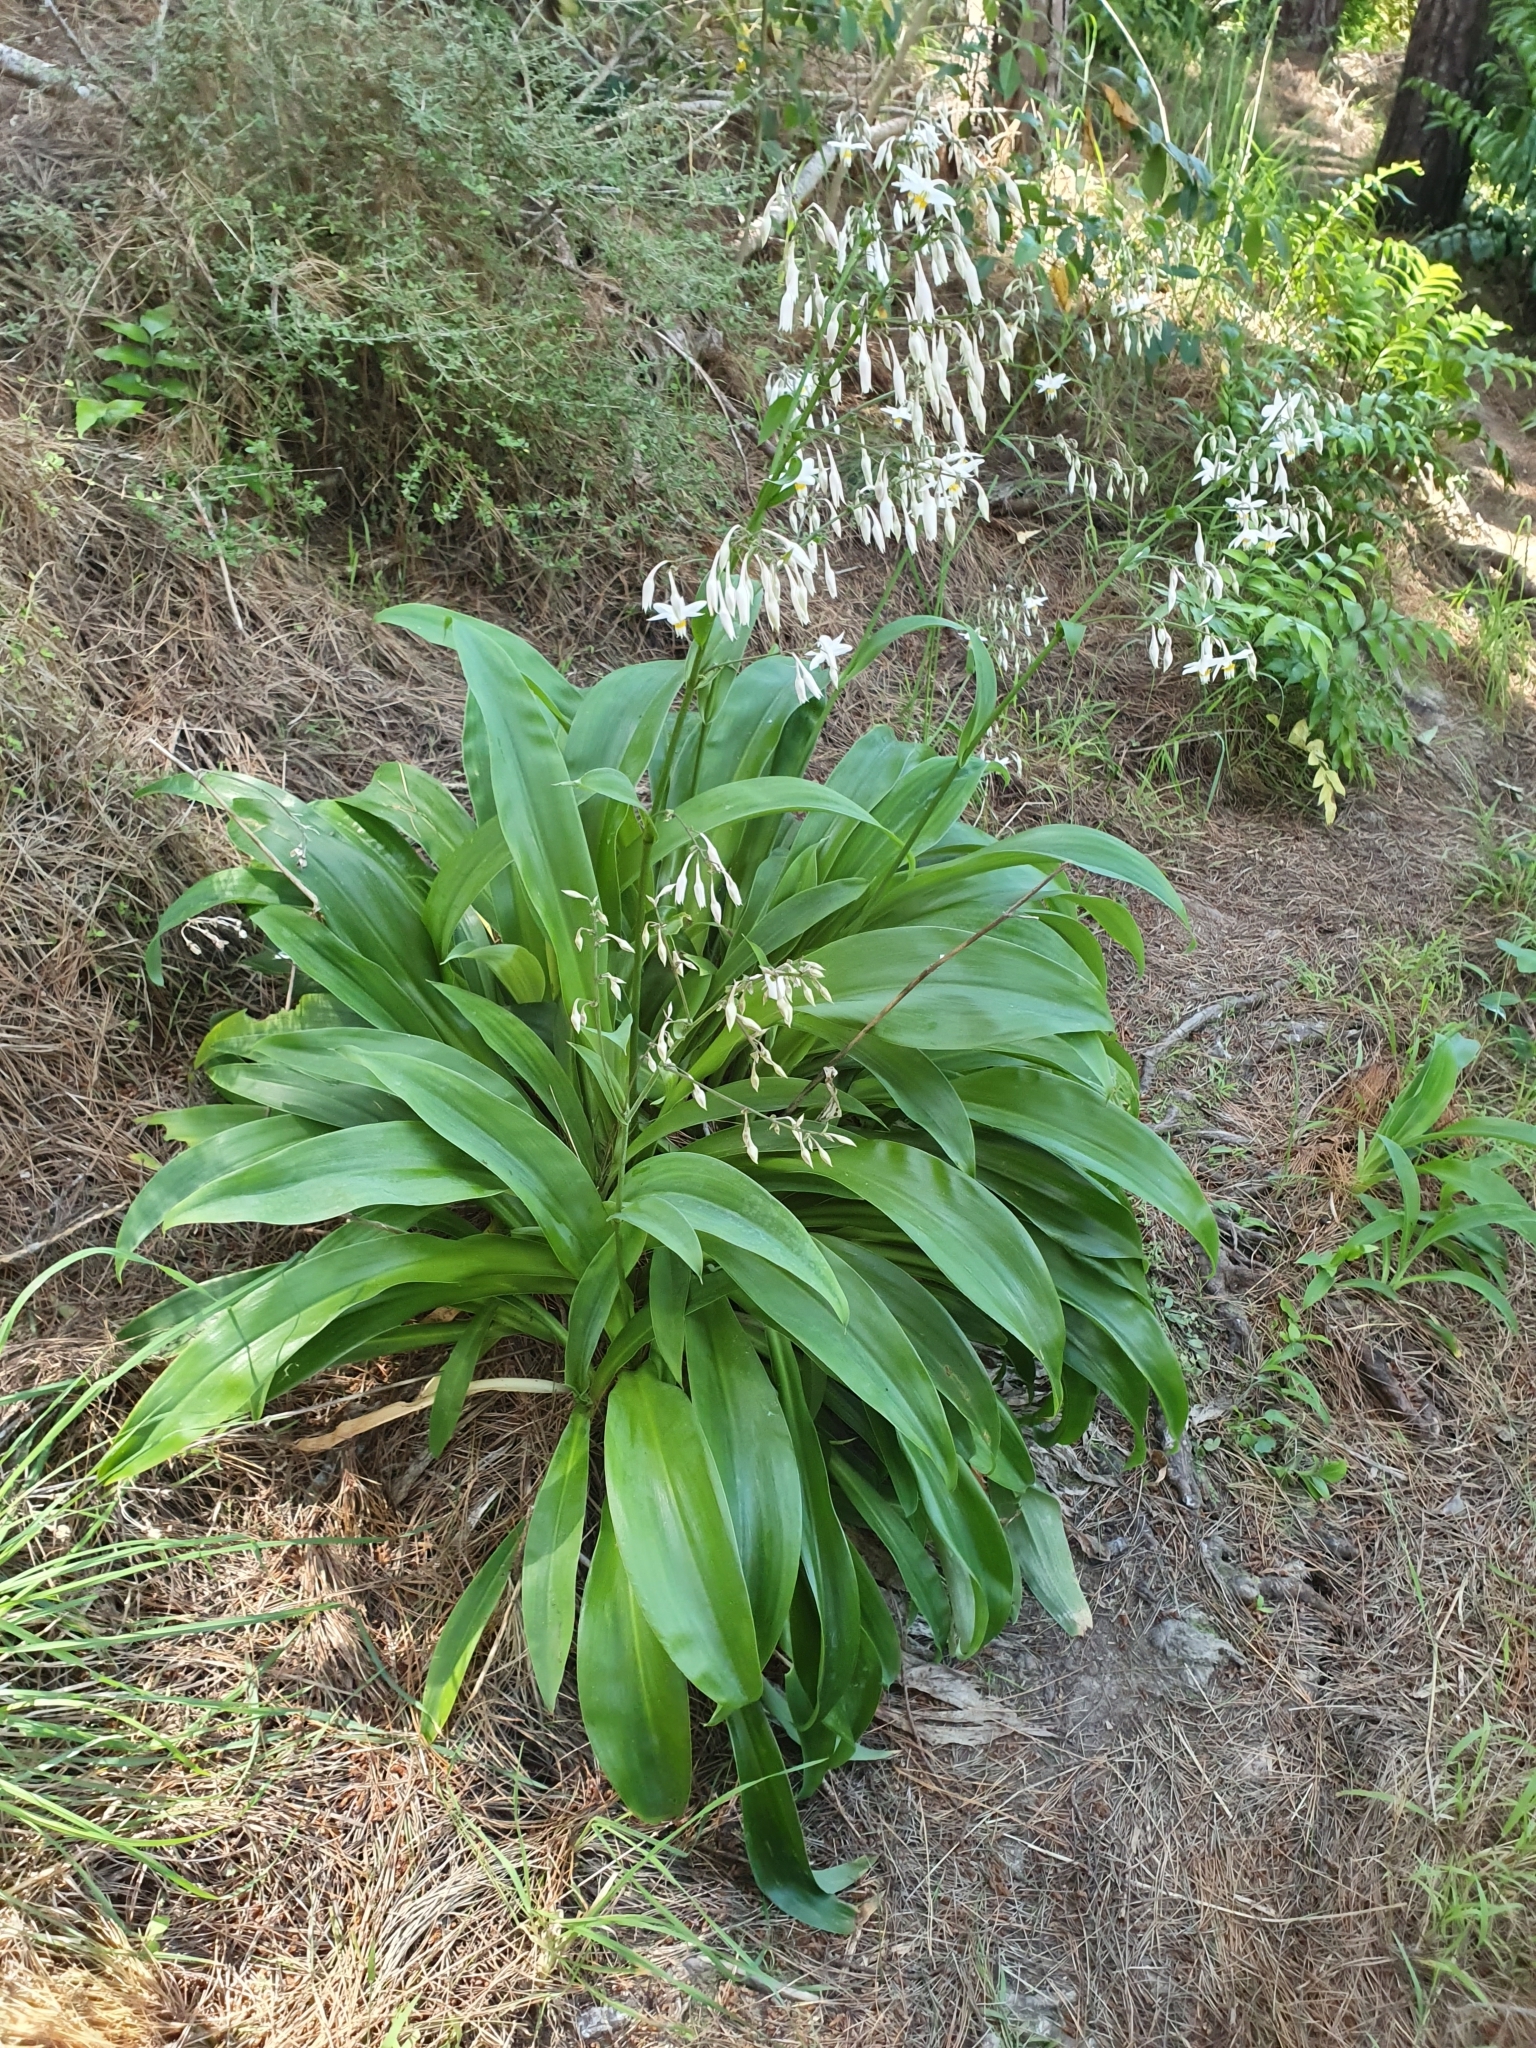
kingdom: Plantae
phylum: Tracheophyta
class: Liliopsida
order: Asparagales
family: Asparagaceae
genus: Arthropodium
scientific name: Arthropodium cirratum
